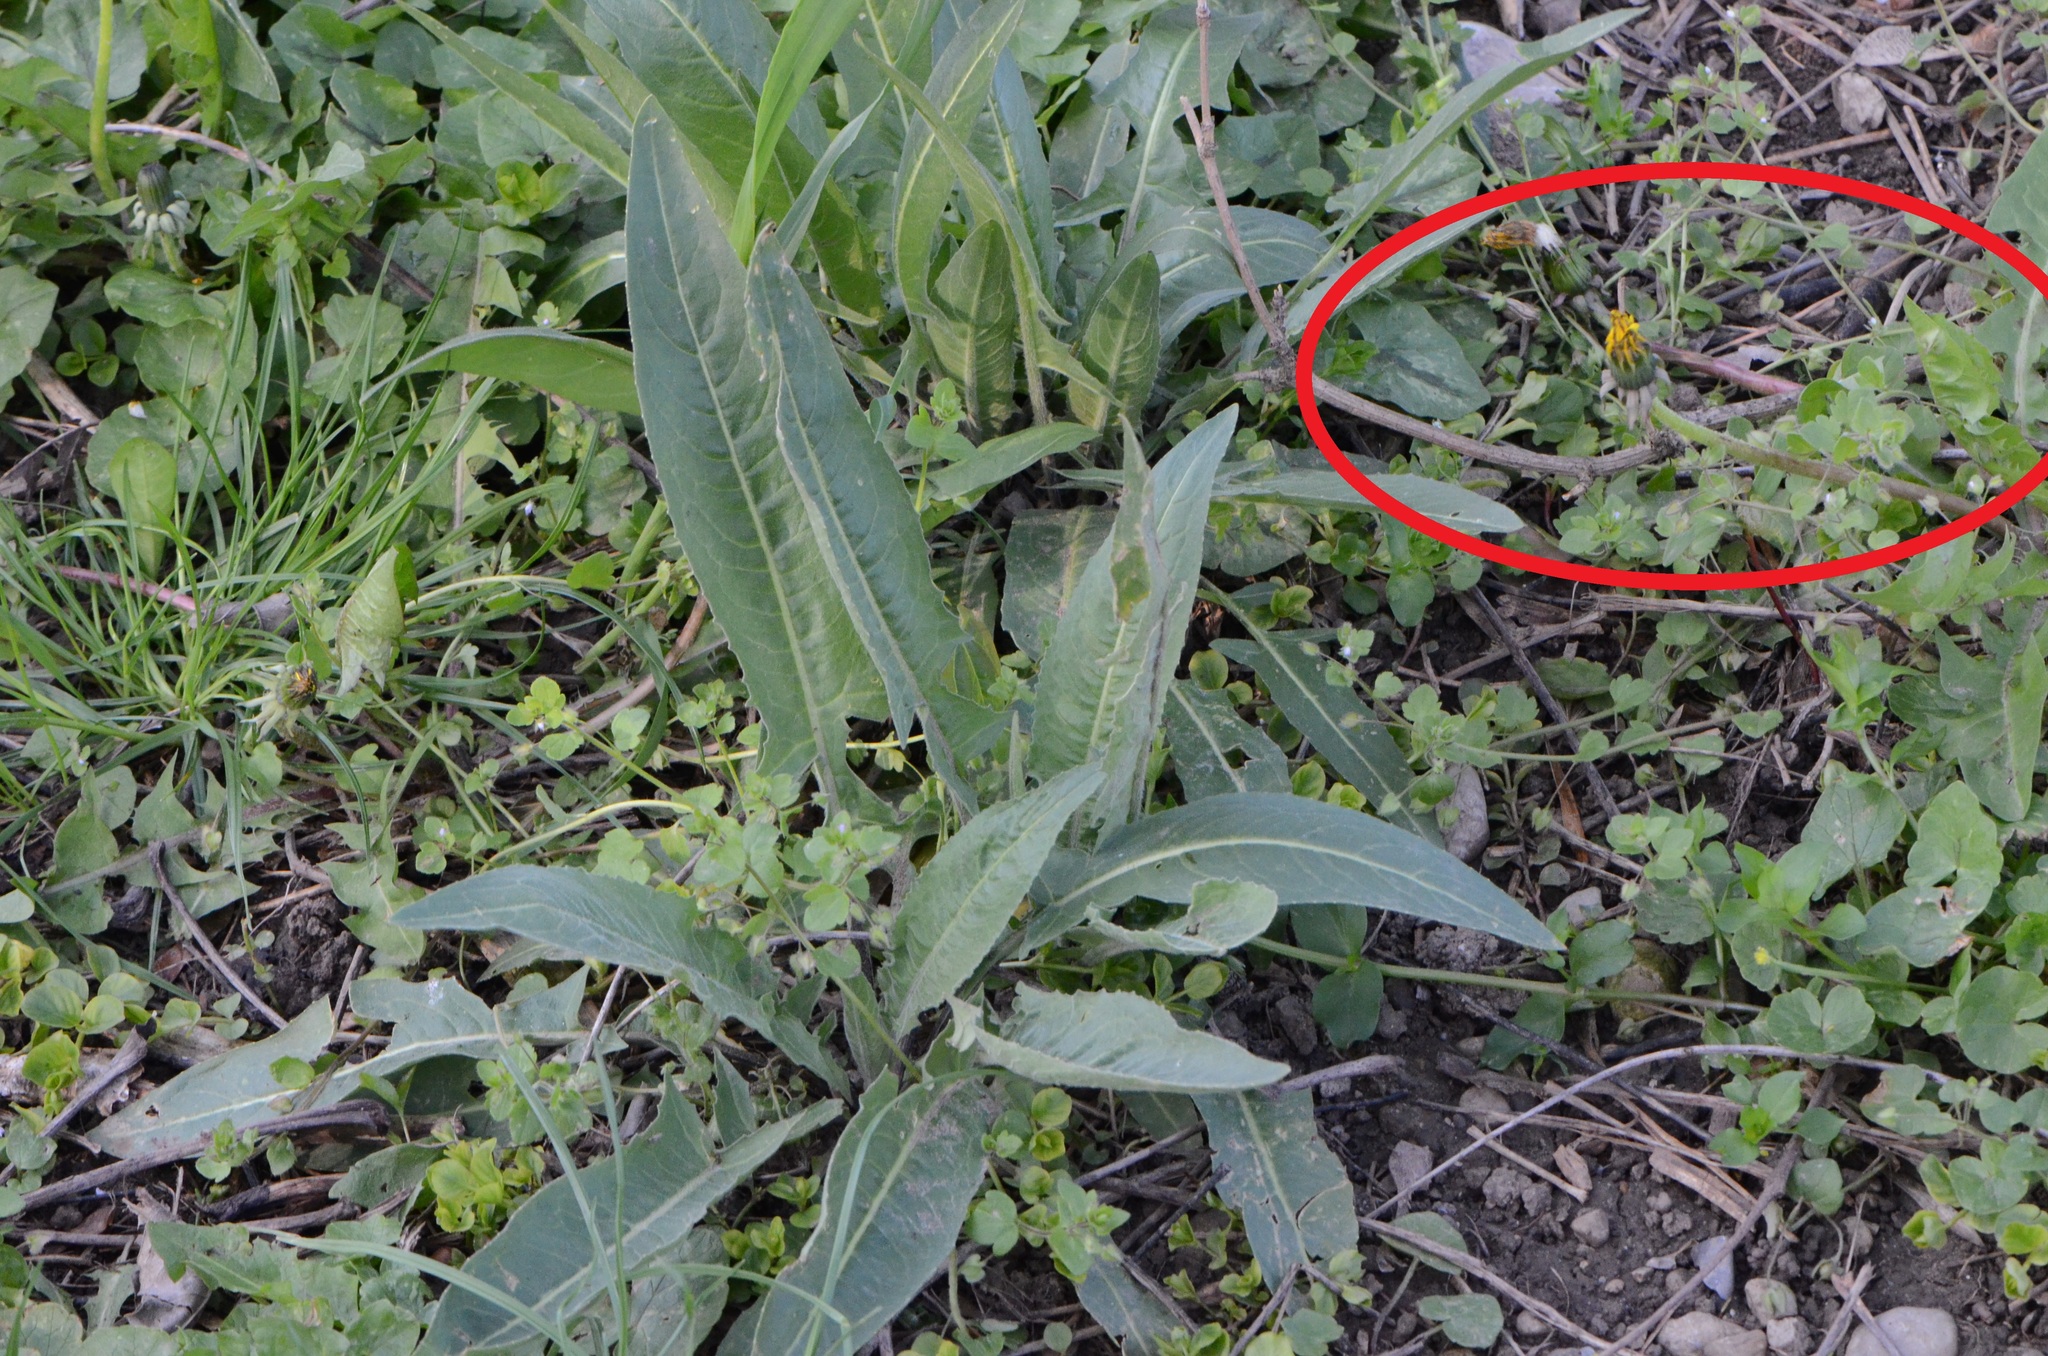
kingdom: Plantae
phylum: Tracheophyta
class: Magnoliopsida
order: Asterales
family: Asteraceae
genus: Taraxacum
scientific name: Taraxacum officinale
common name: Common dandelion
